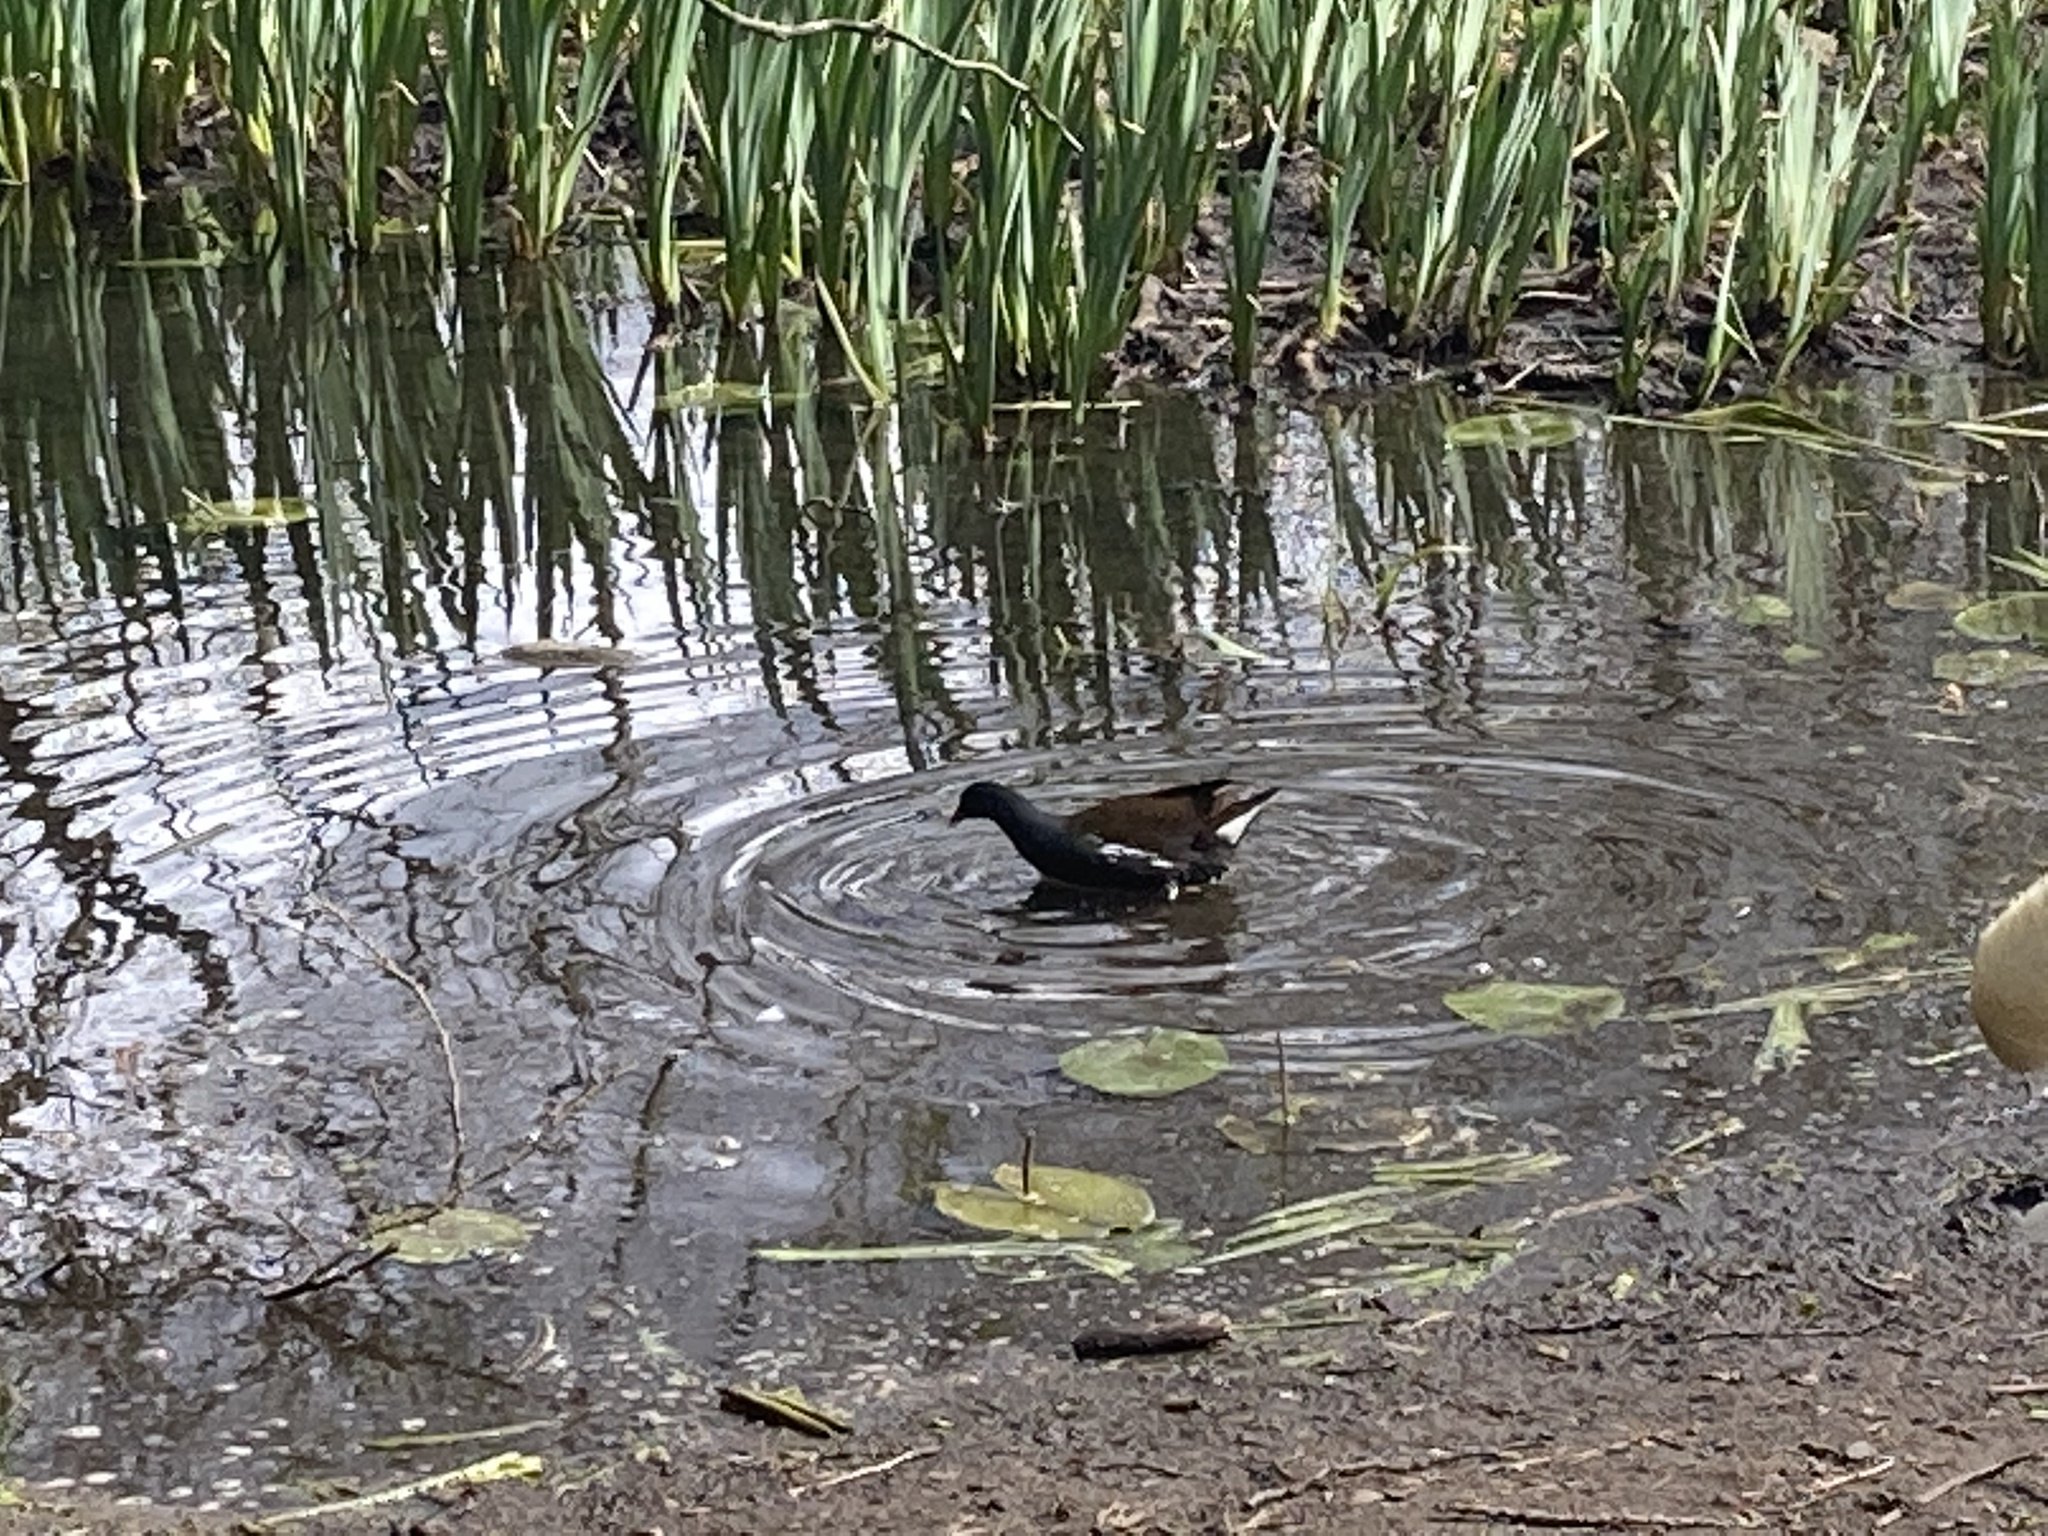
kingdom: Animalia
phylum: Chordata
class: Aves
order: Gruiformes
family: Rallidae
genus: Gallinula
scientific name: Gallinula chloropus
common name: Common moorhen
